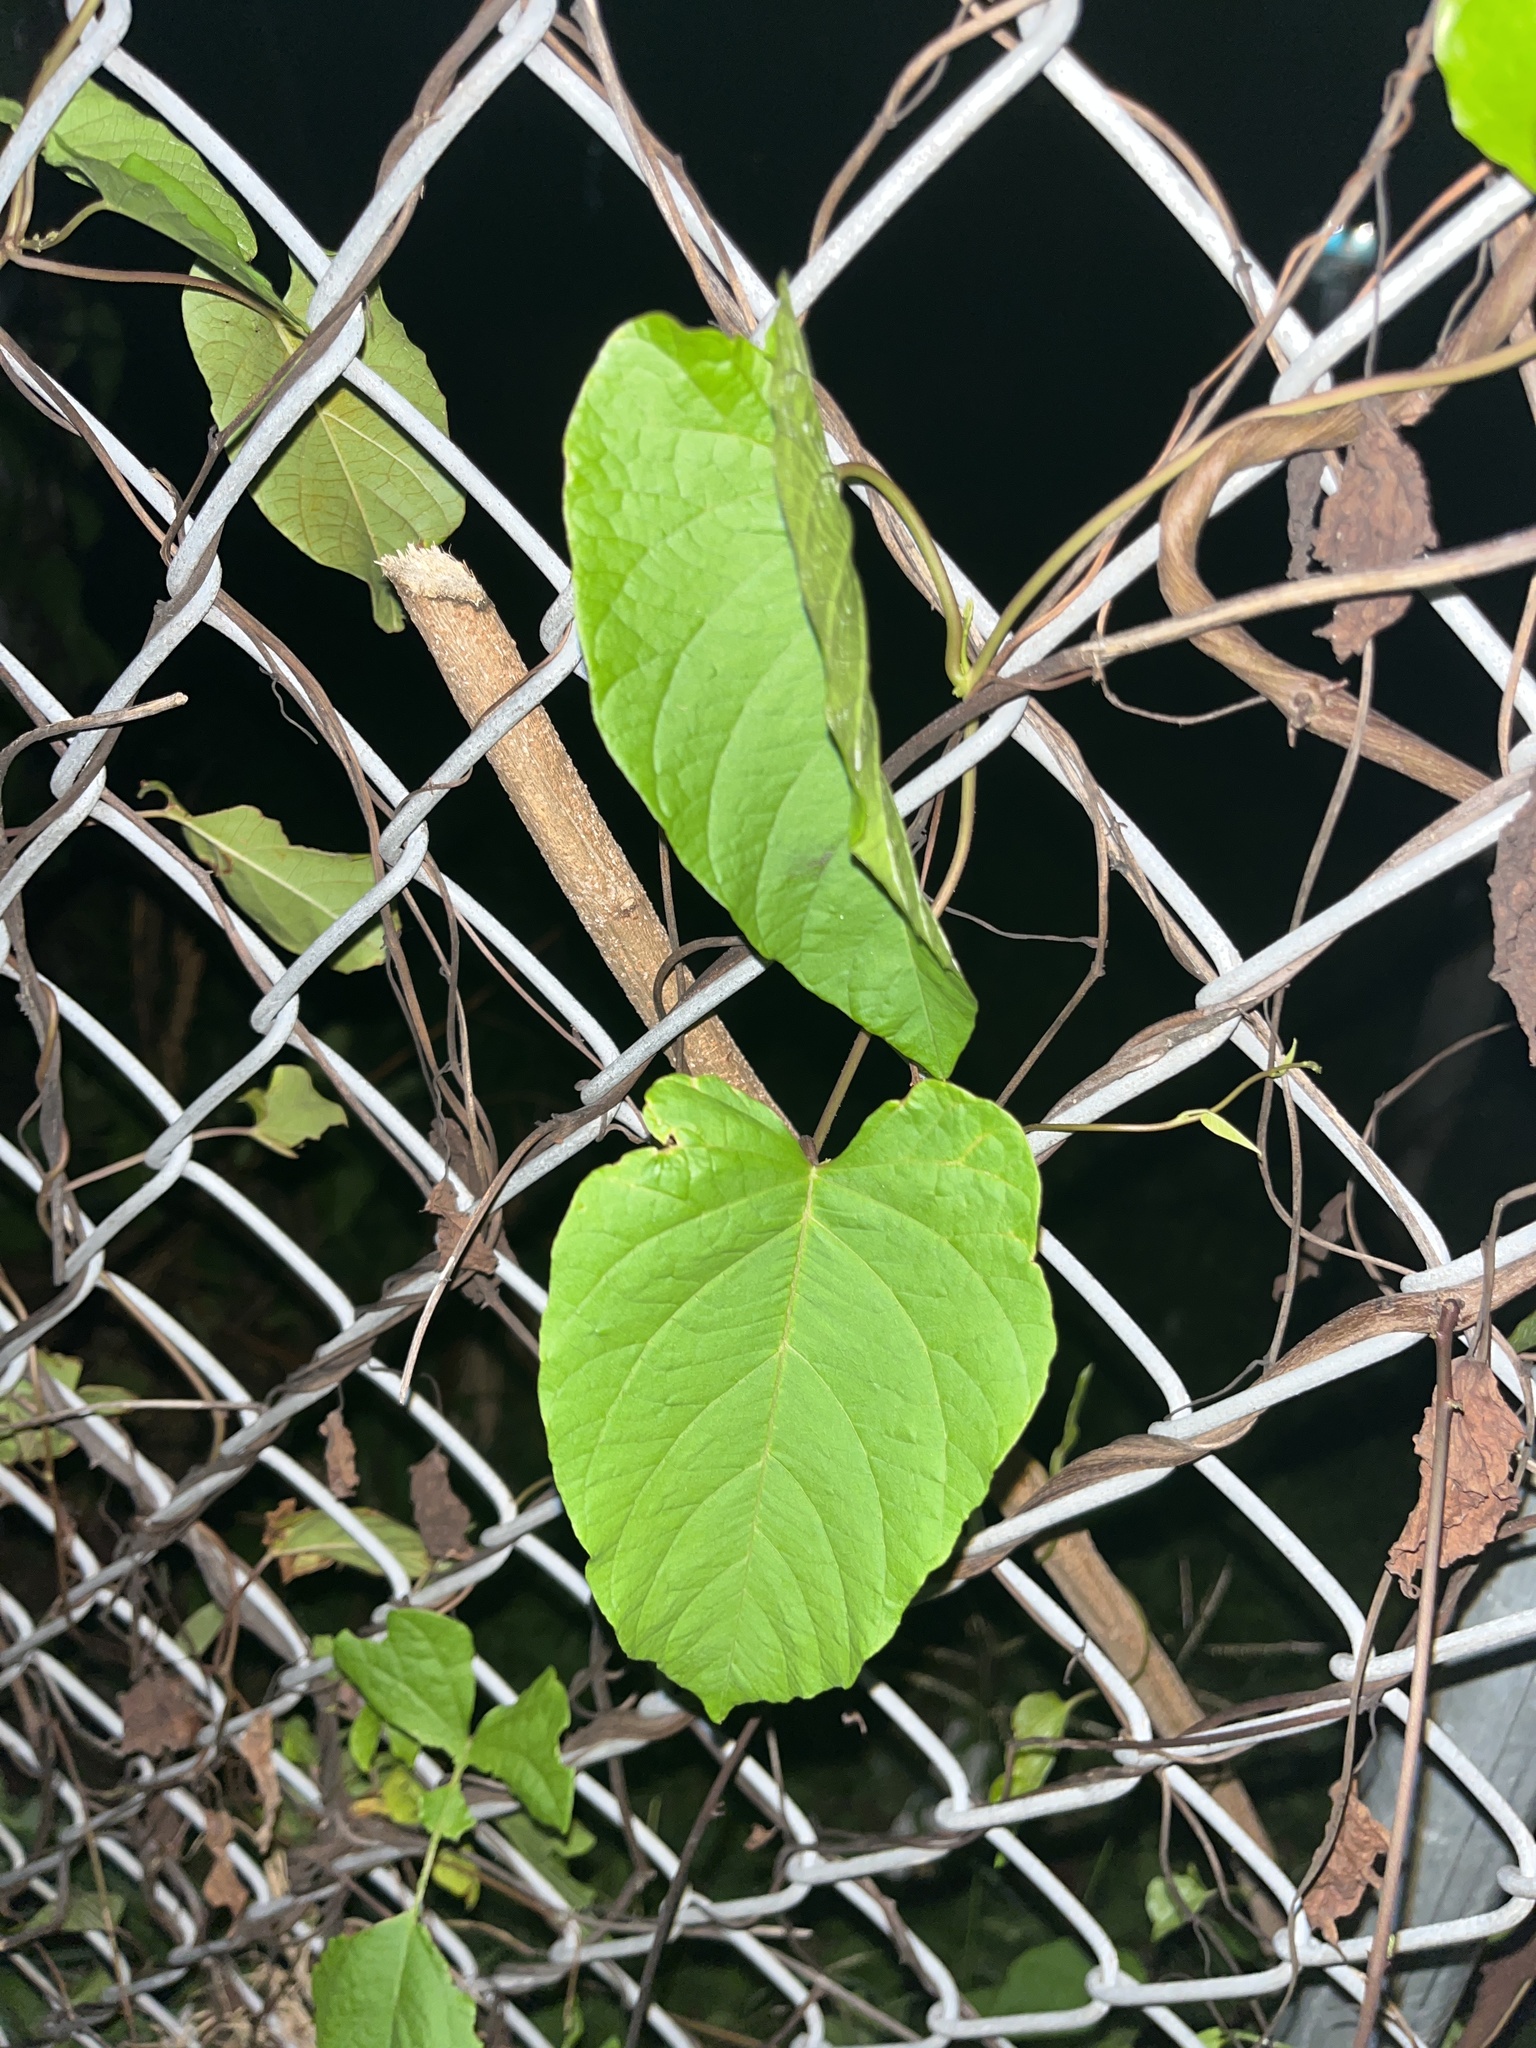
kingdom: Plantae
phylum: Tracheophyta
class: Magnoliopsida
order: Solanales
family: Convolvulaceae
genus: Camonea
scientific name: Camonea umbellata
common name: Hogvine
